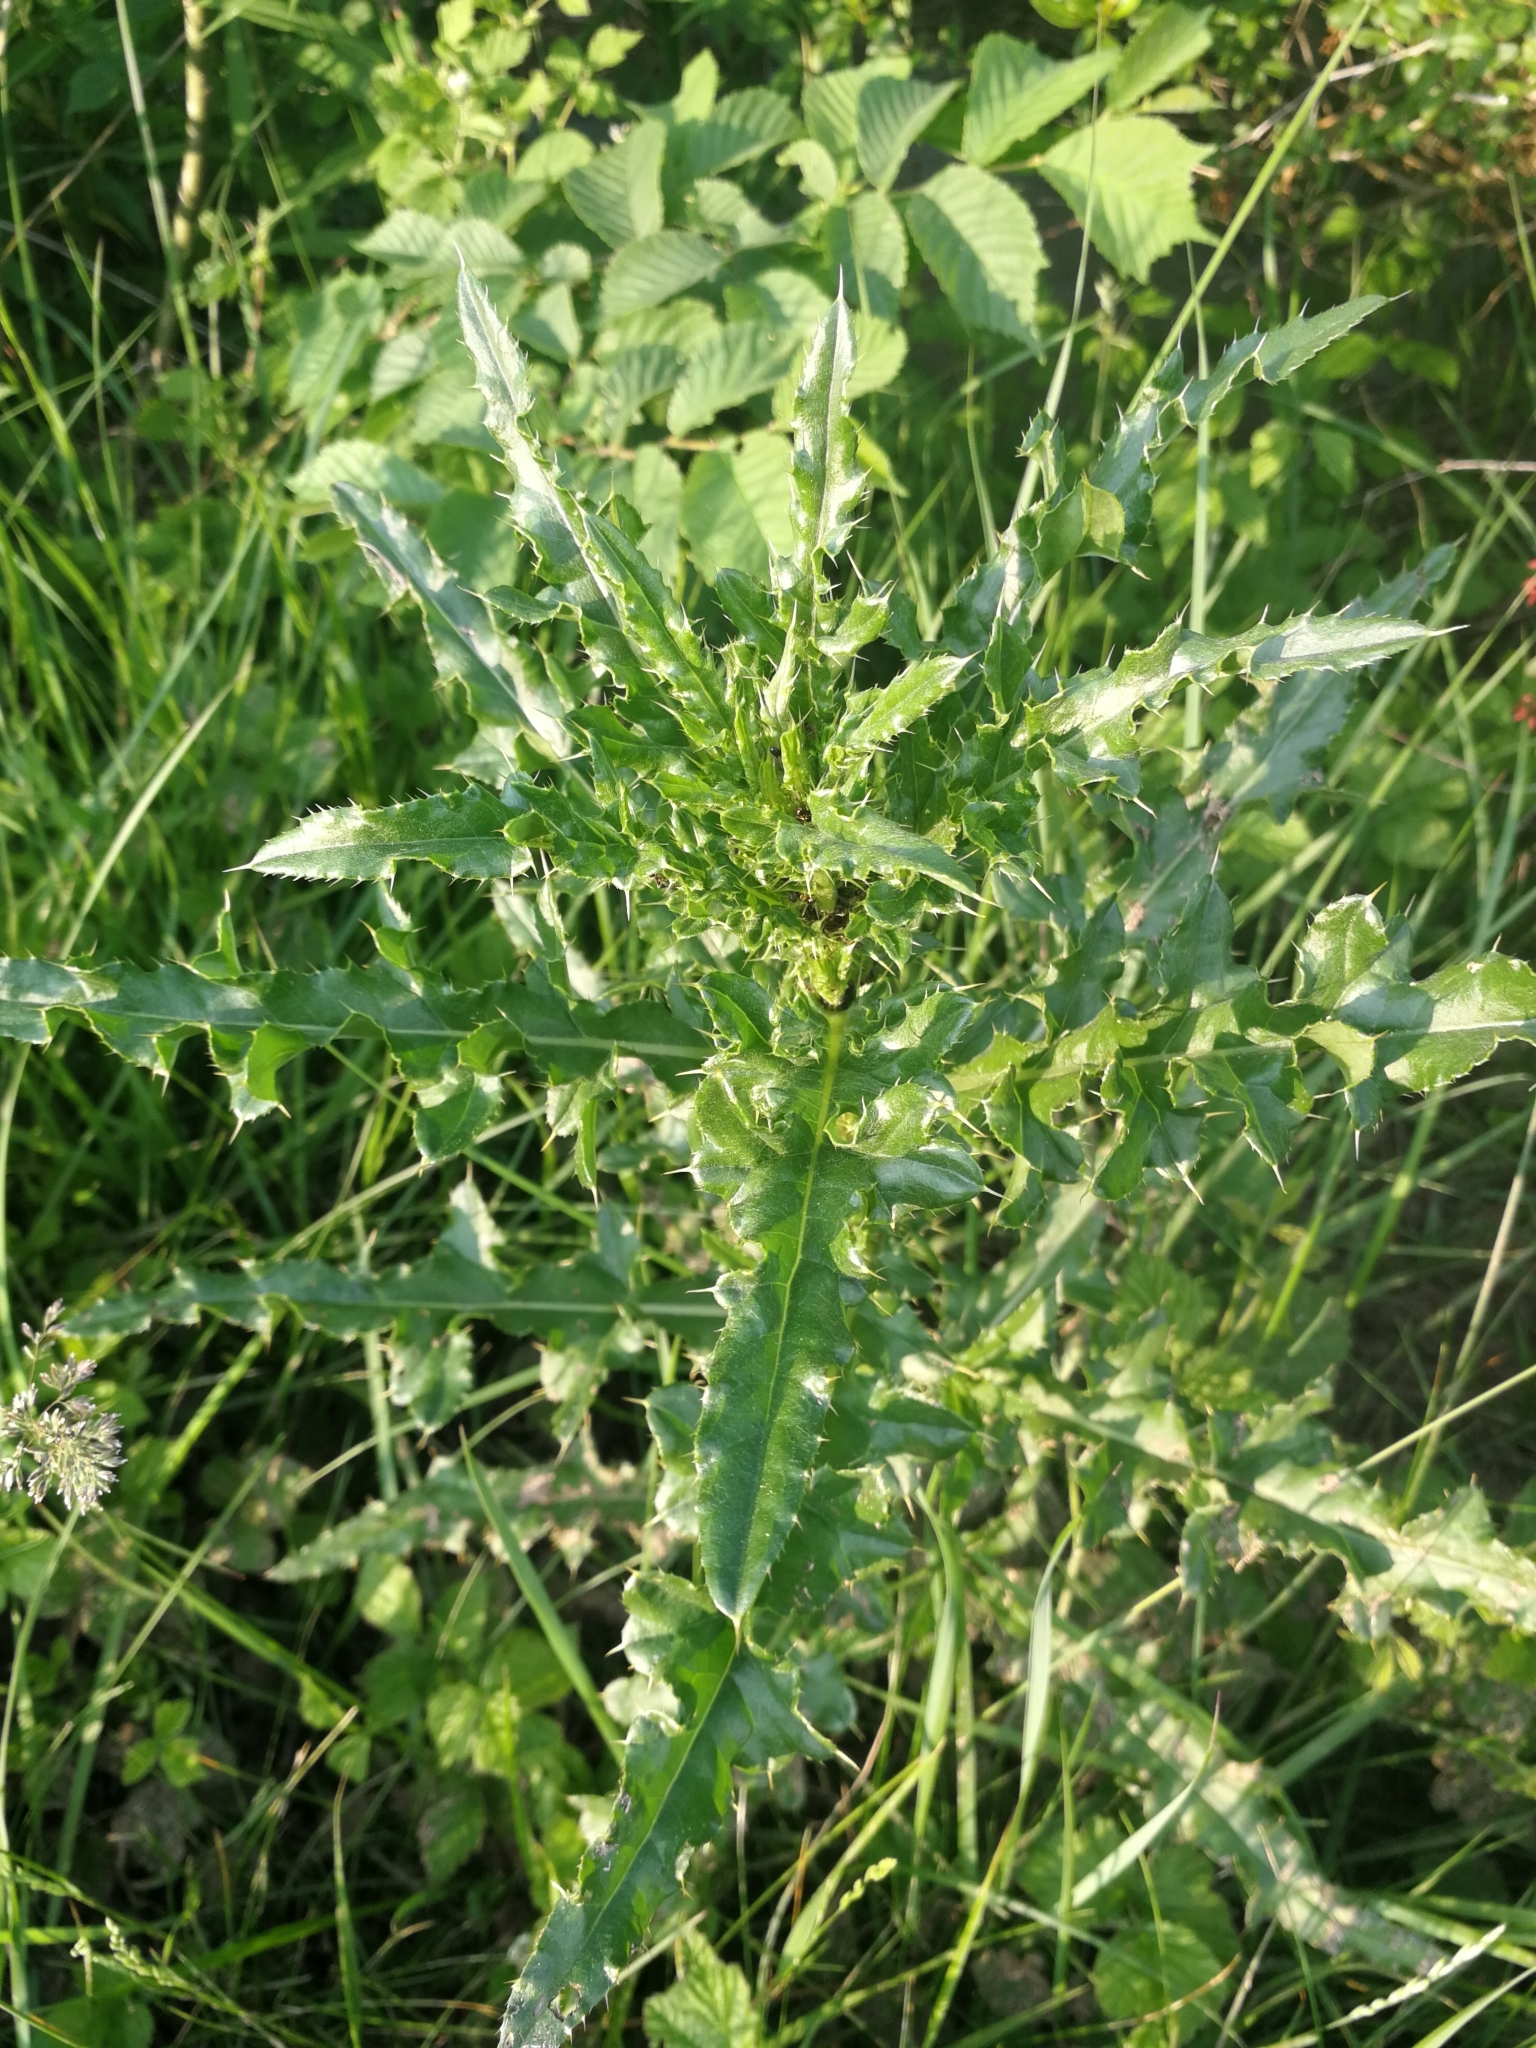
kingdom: Plantae
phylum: Tracheophyta
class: Magnoliopsida
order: Asterales
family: Asteraceae
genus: Cirsium
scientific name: Cirsium arvense
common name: Creeping thistle
